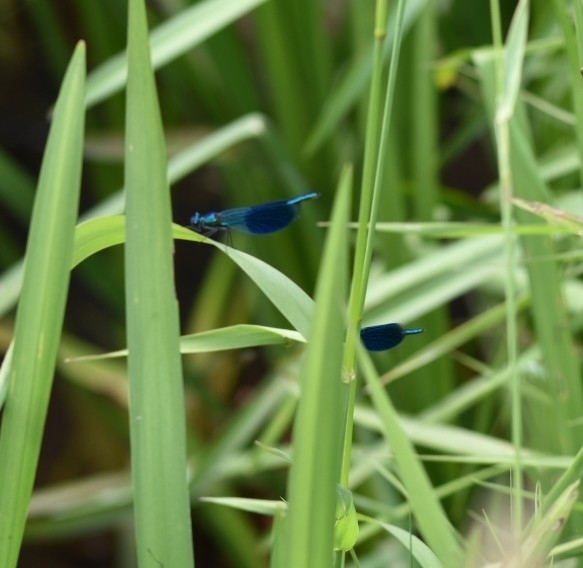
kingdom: Animalia
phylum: Arthropoda
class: Insecta
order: Odonata
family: Calopterygidae
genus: Calopteryx
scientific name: Calopteryx splendens
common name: Banded demoiselle
